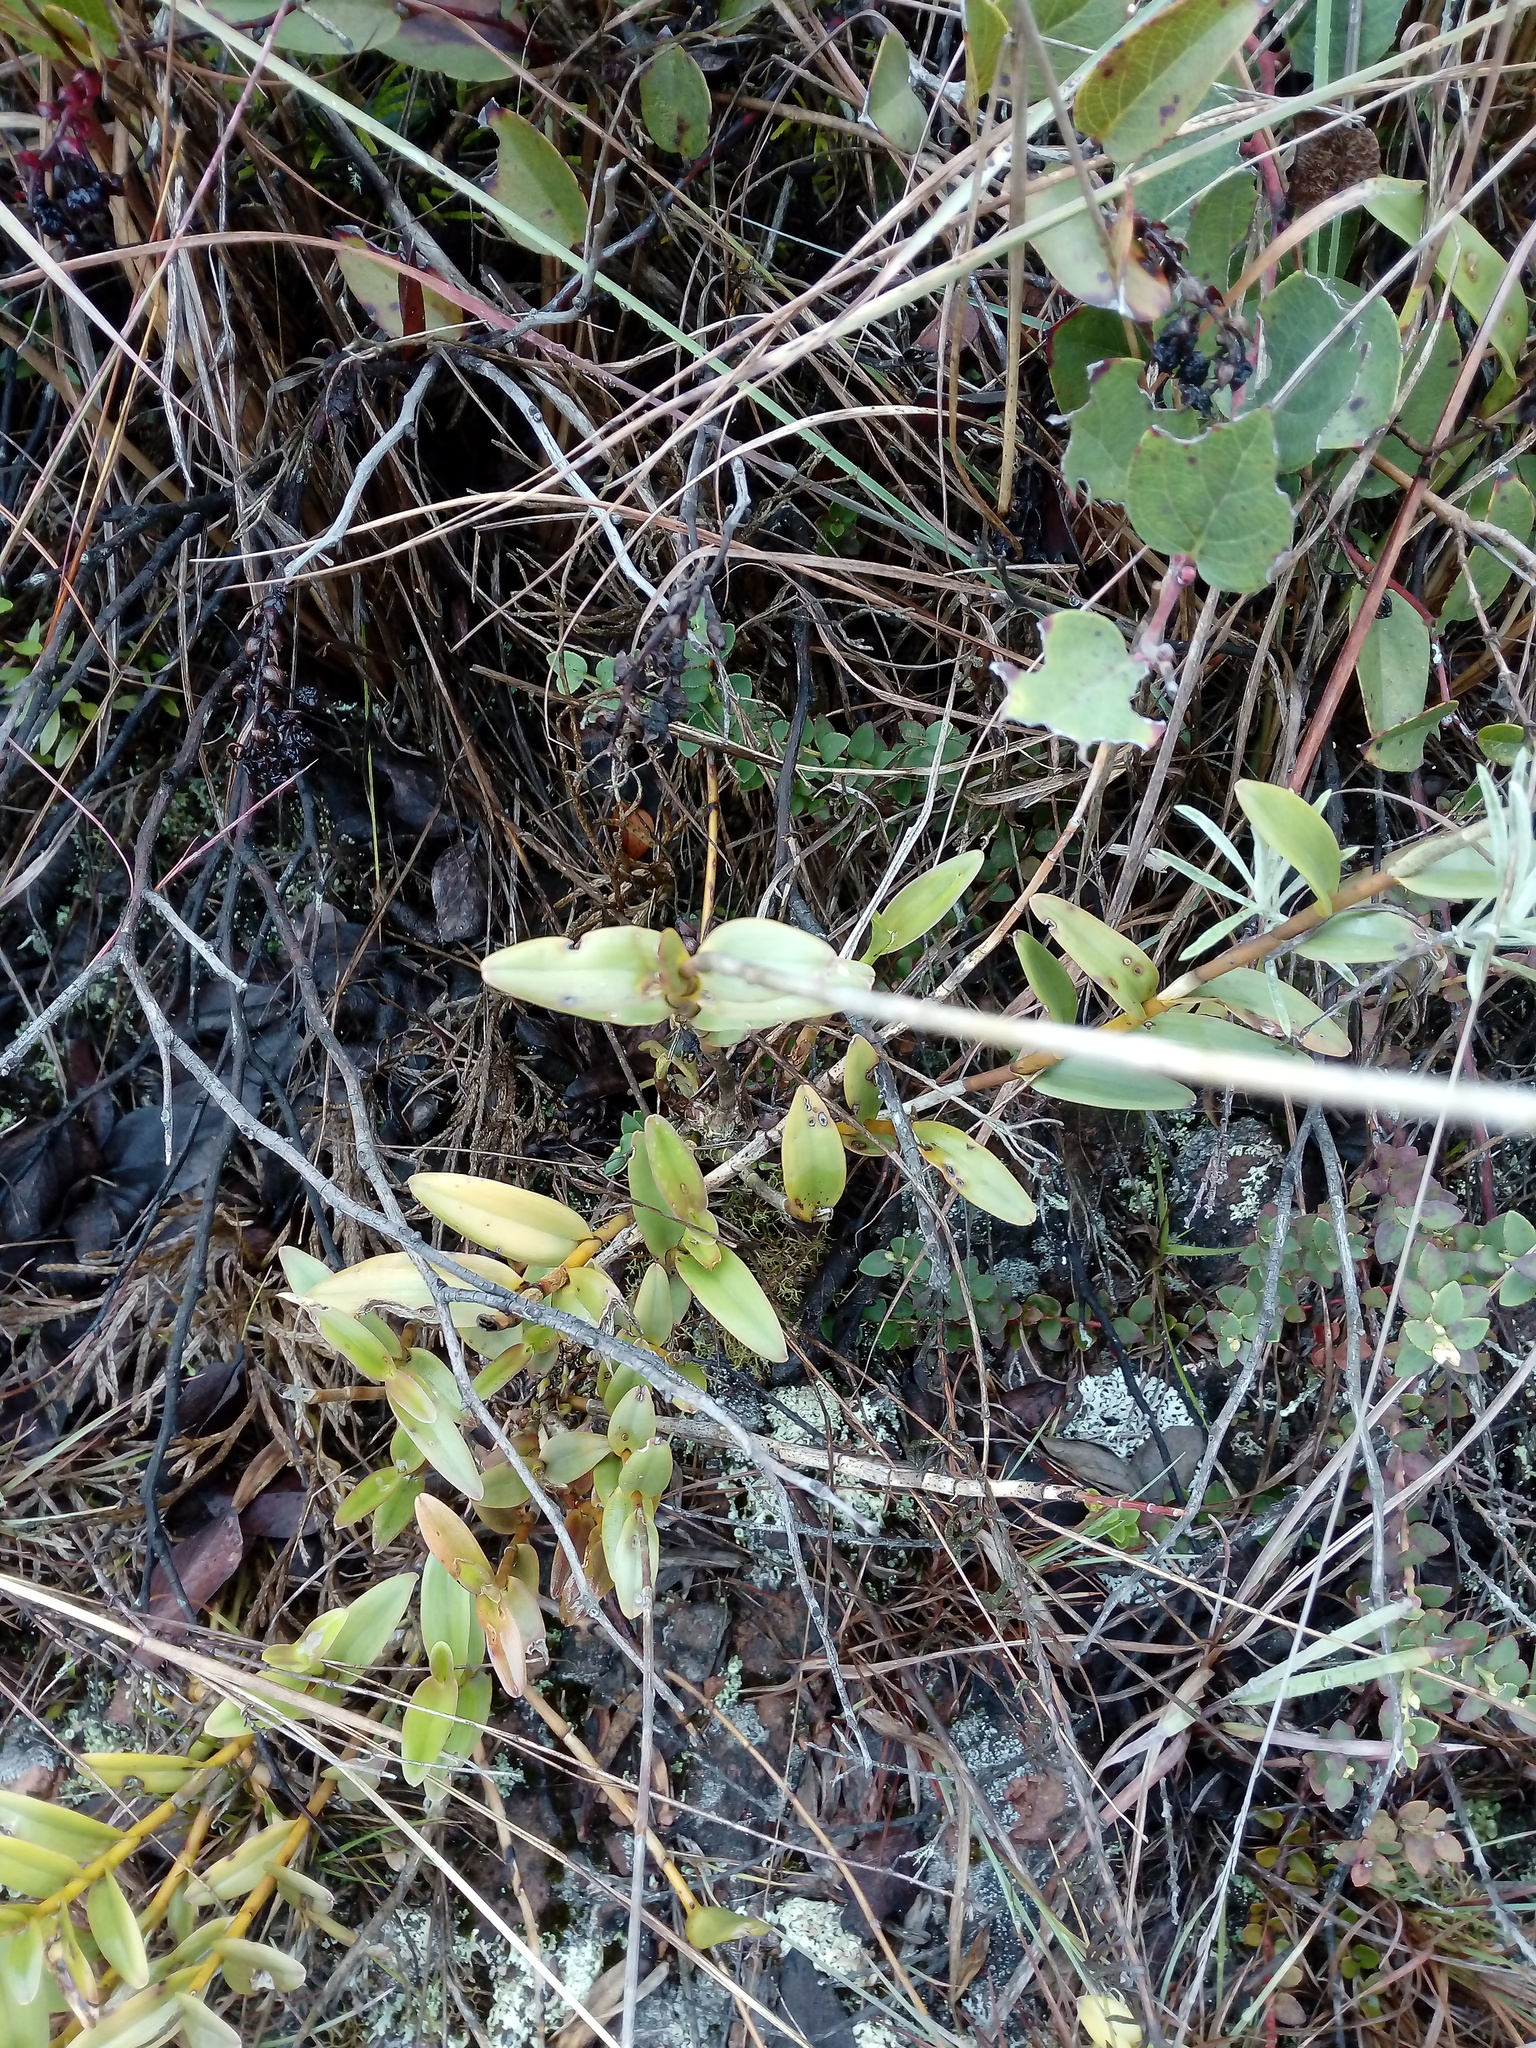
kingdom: Plantae
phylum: Tracheophyta
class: Liliopsida
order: Asparagales
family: Orchidaceae
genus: Epidendrum
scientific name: Epidendrum arachnoglossum
